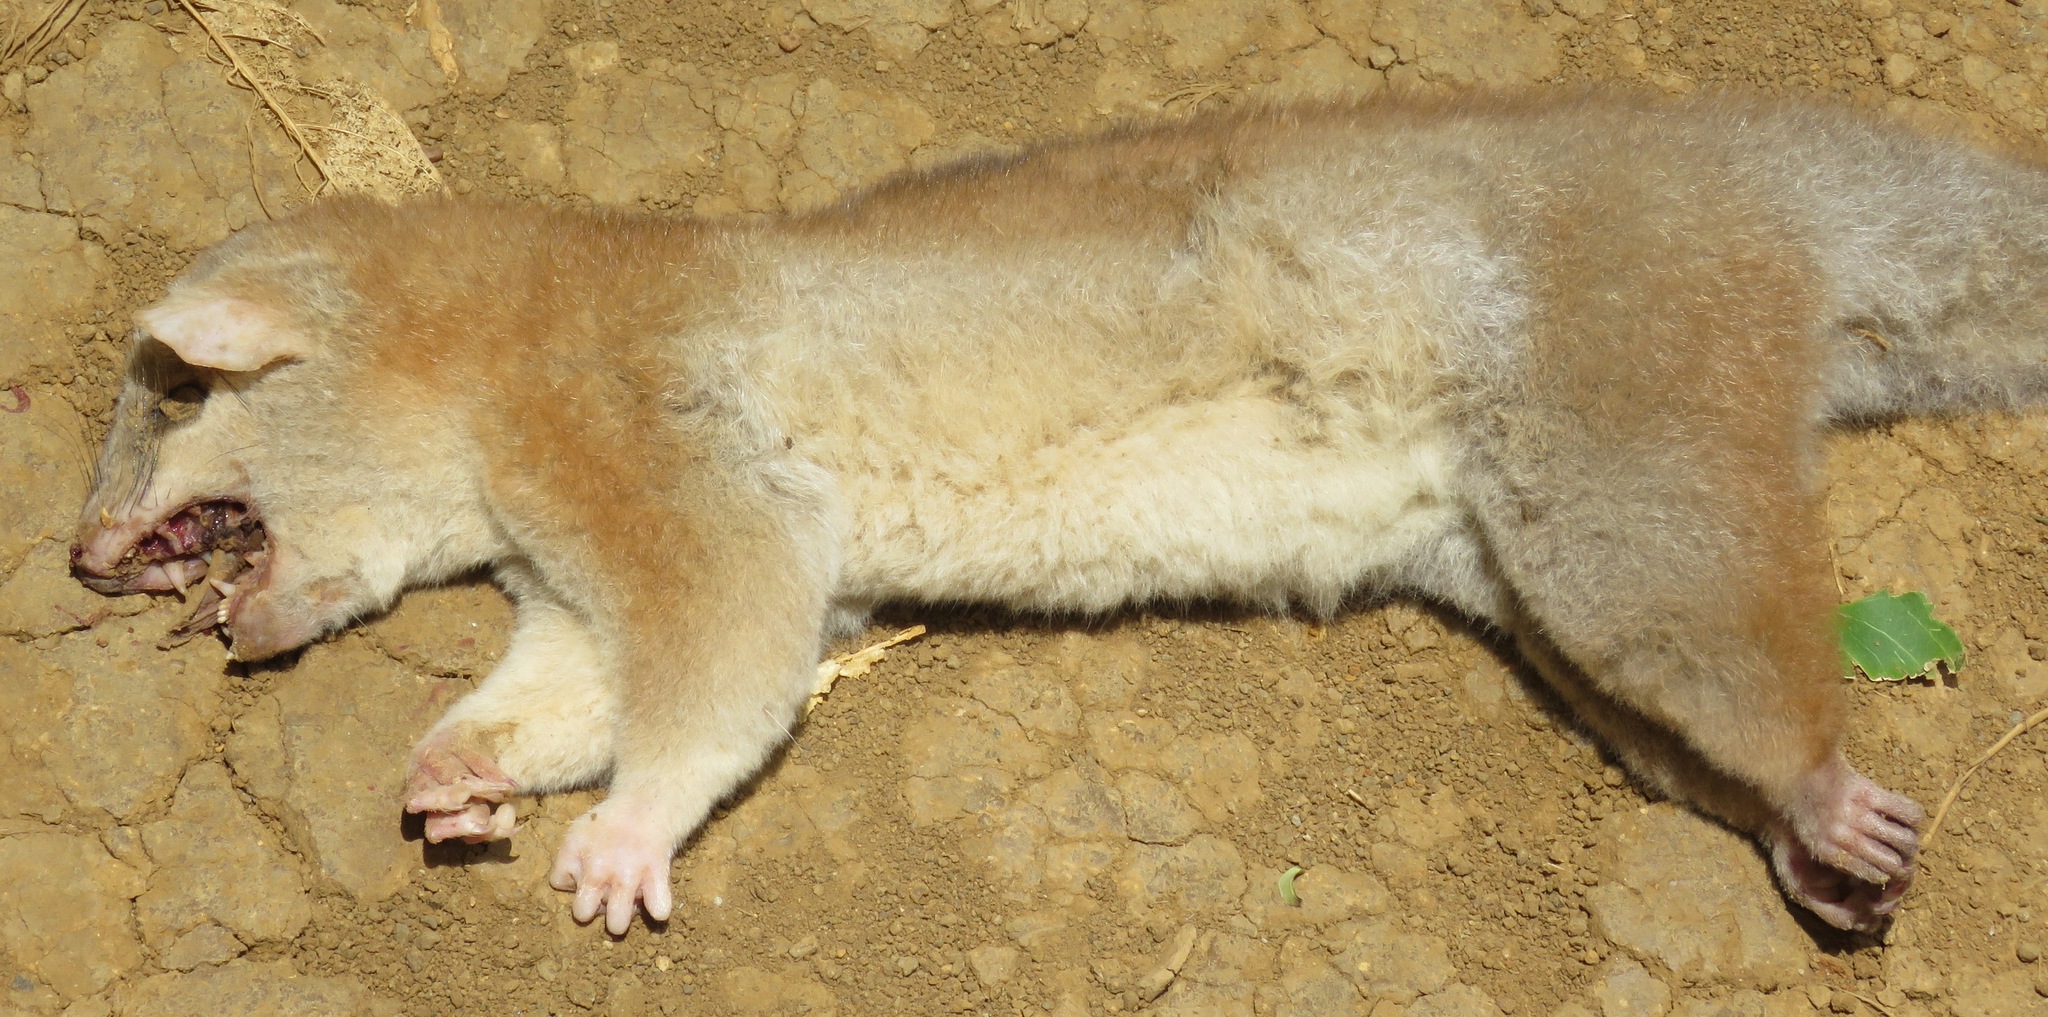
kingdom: Animalia
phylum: Chordata
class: Mammalia
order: Didelphimorphia
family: Didelphidae
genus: Caluromys
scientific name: Caluromys derbianus
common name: Derby's woolly opossum
